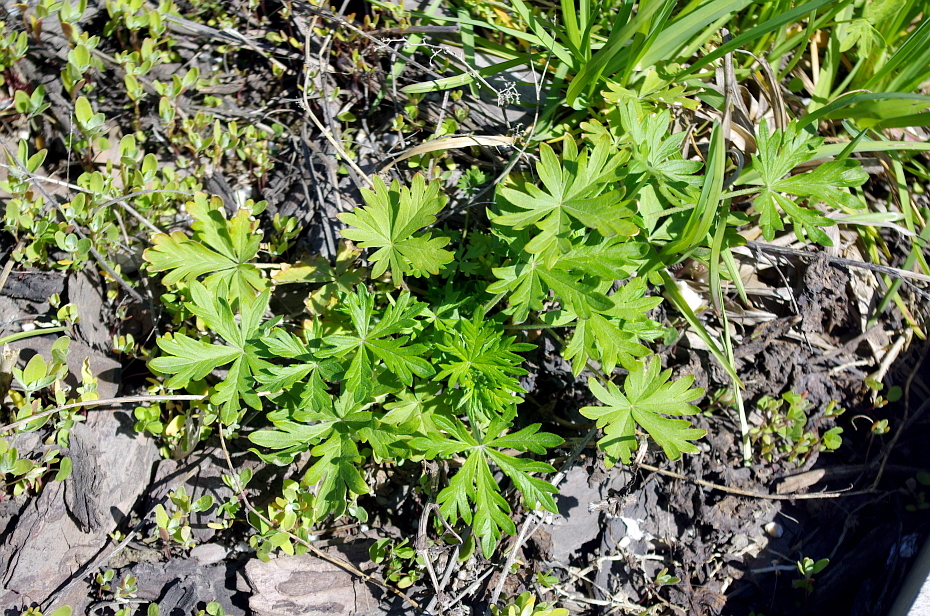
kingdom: Plantae
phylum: Tracheophyta
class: Magnoliopsida
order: Rosales
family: Rosaceae
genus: Potentilla
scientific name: Potentilla argentea
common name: Hoary cinquefoil
